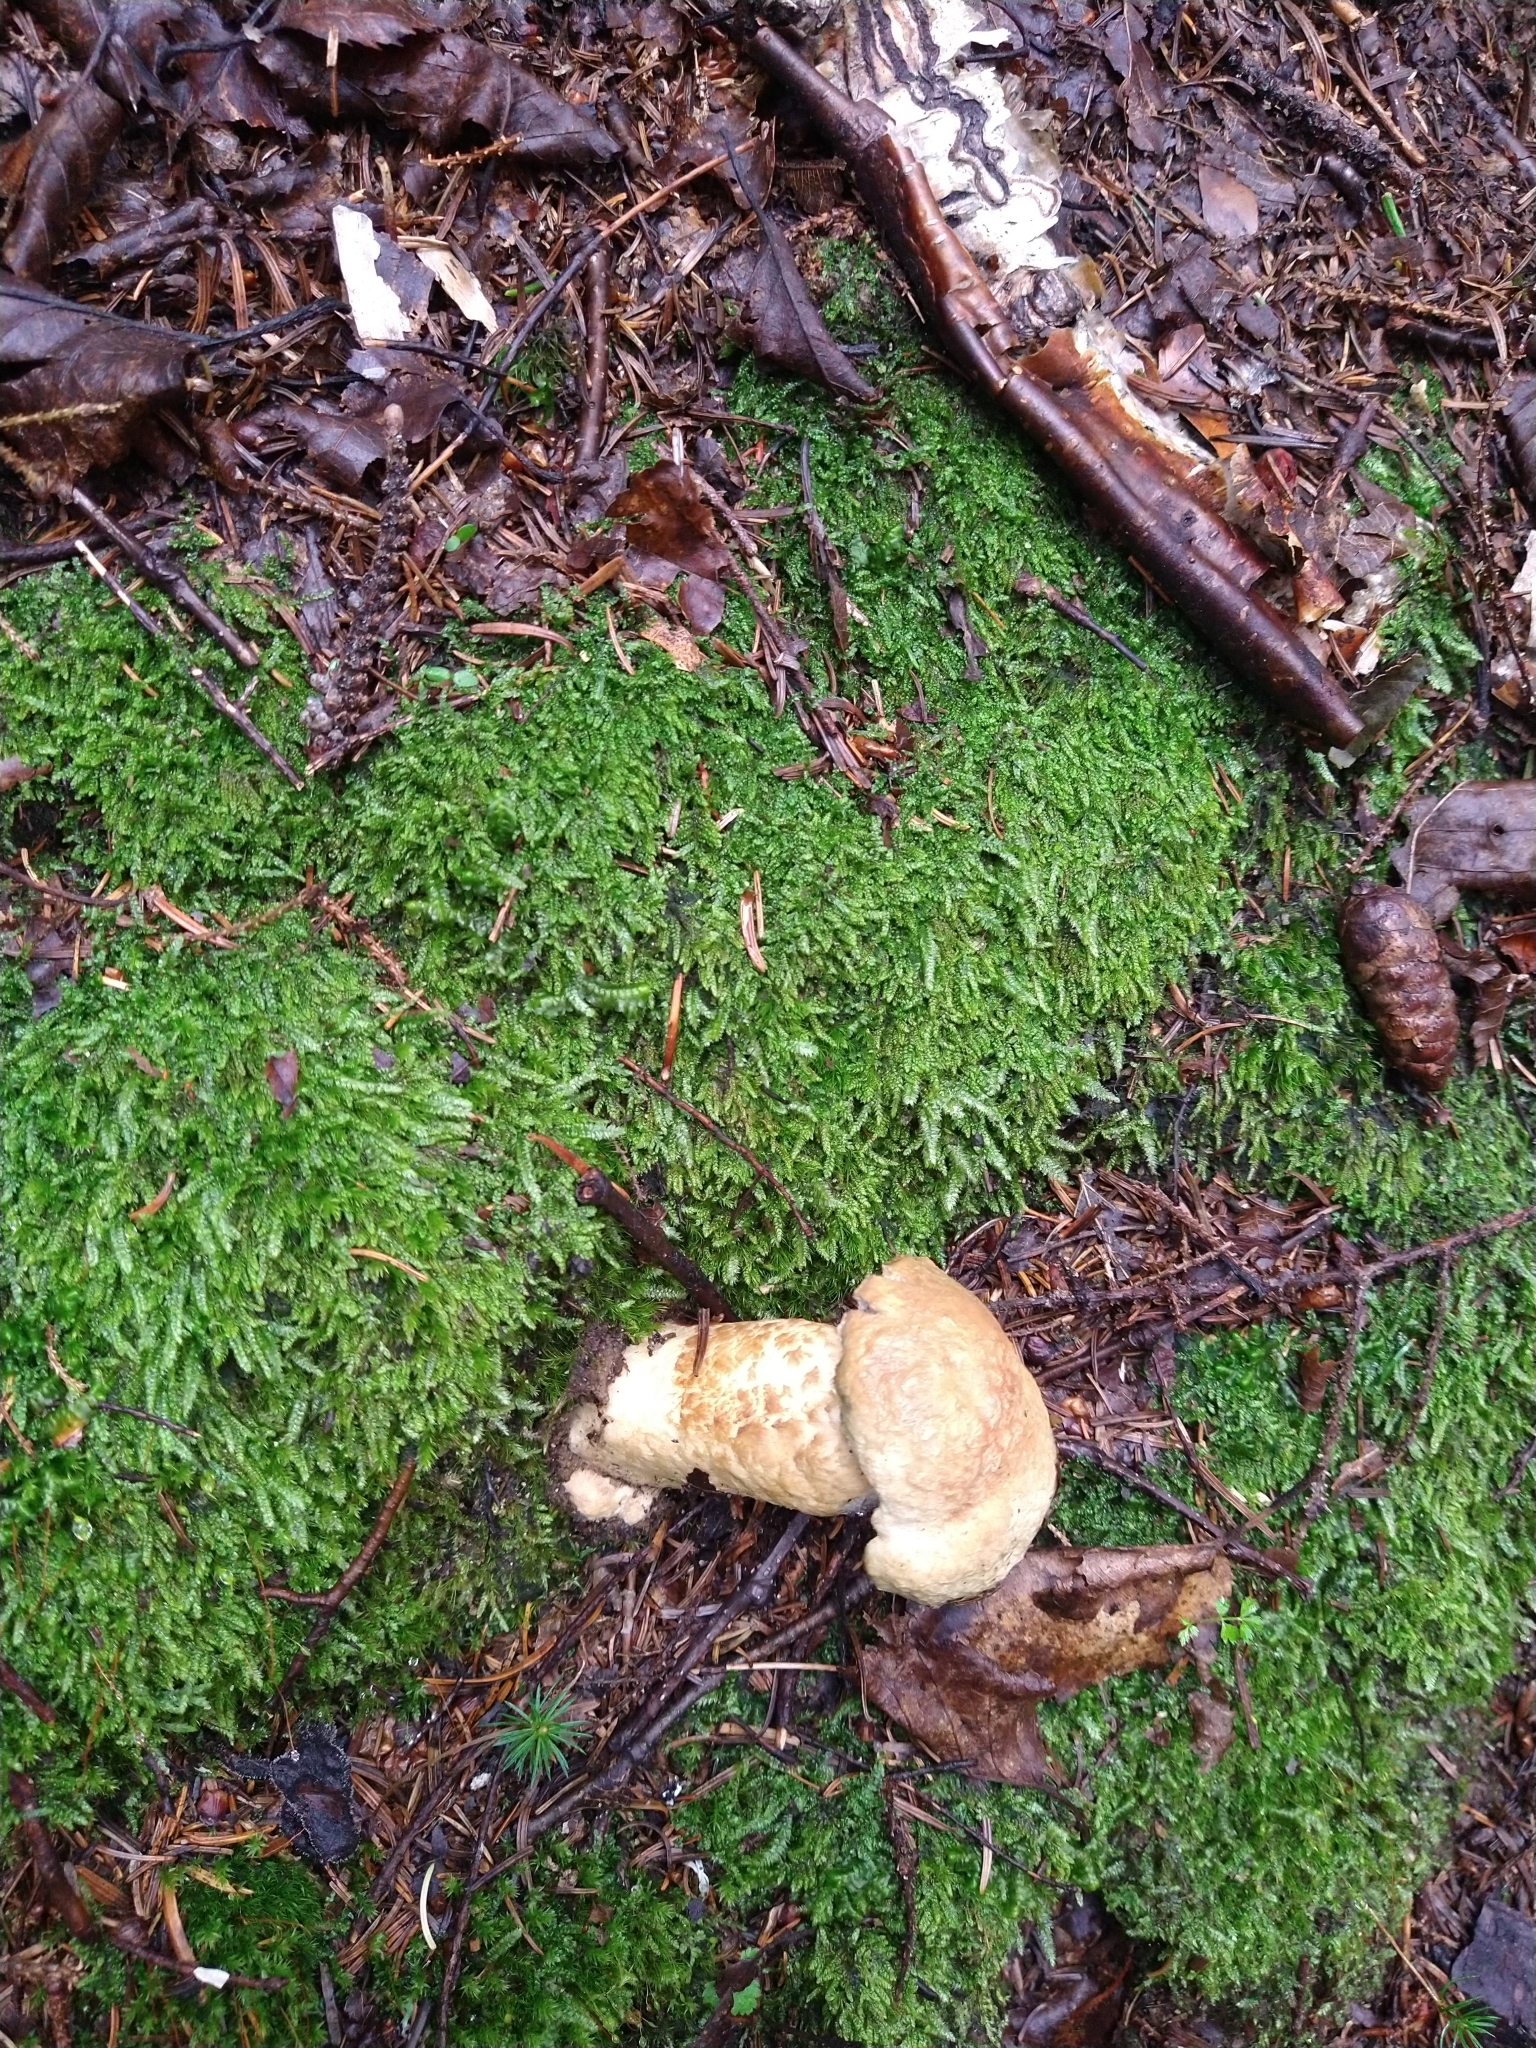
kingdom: Fungi
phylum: Basidiomycota
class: Agaricomycetes
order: Boletales
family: Gyroporaceae
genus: Gyroporus
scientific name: Gyroporus cyanescens
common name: Cornflower bolete
